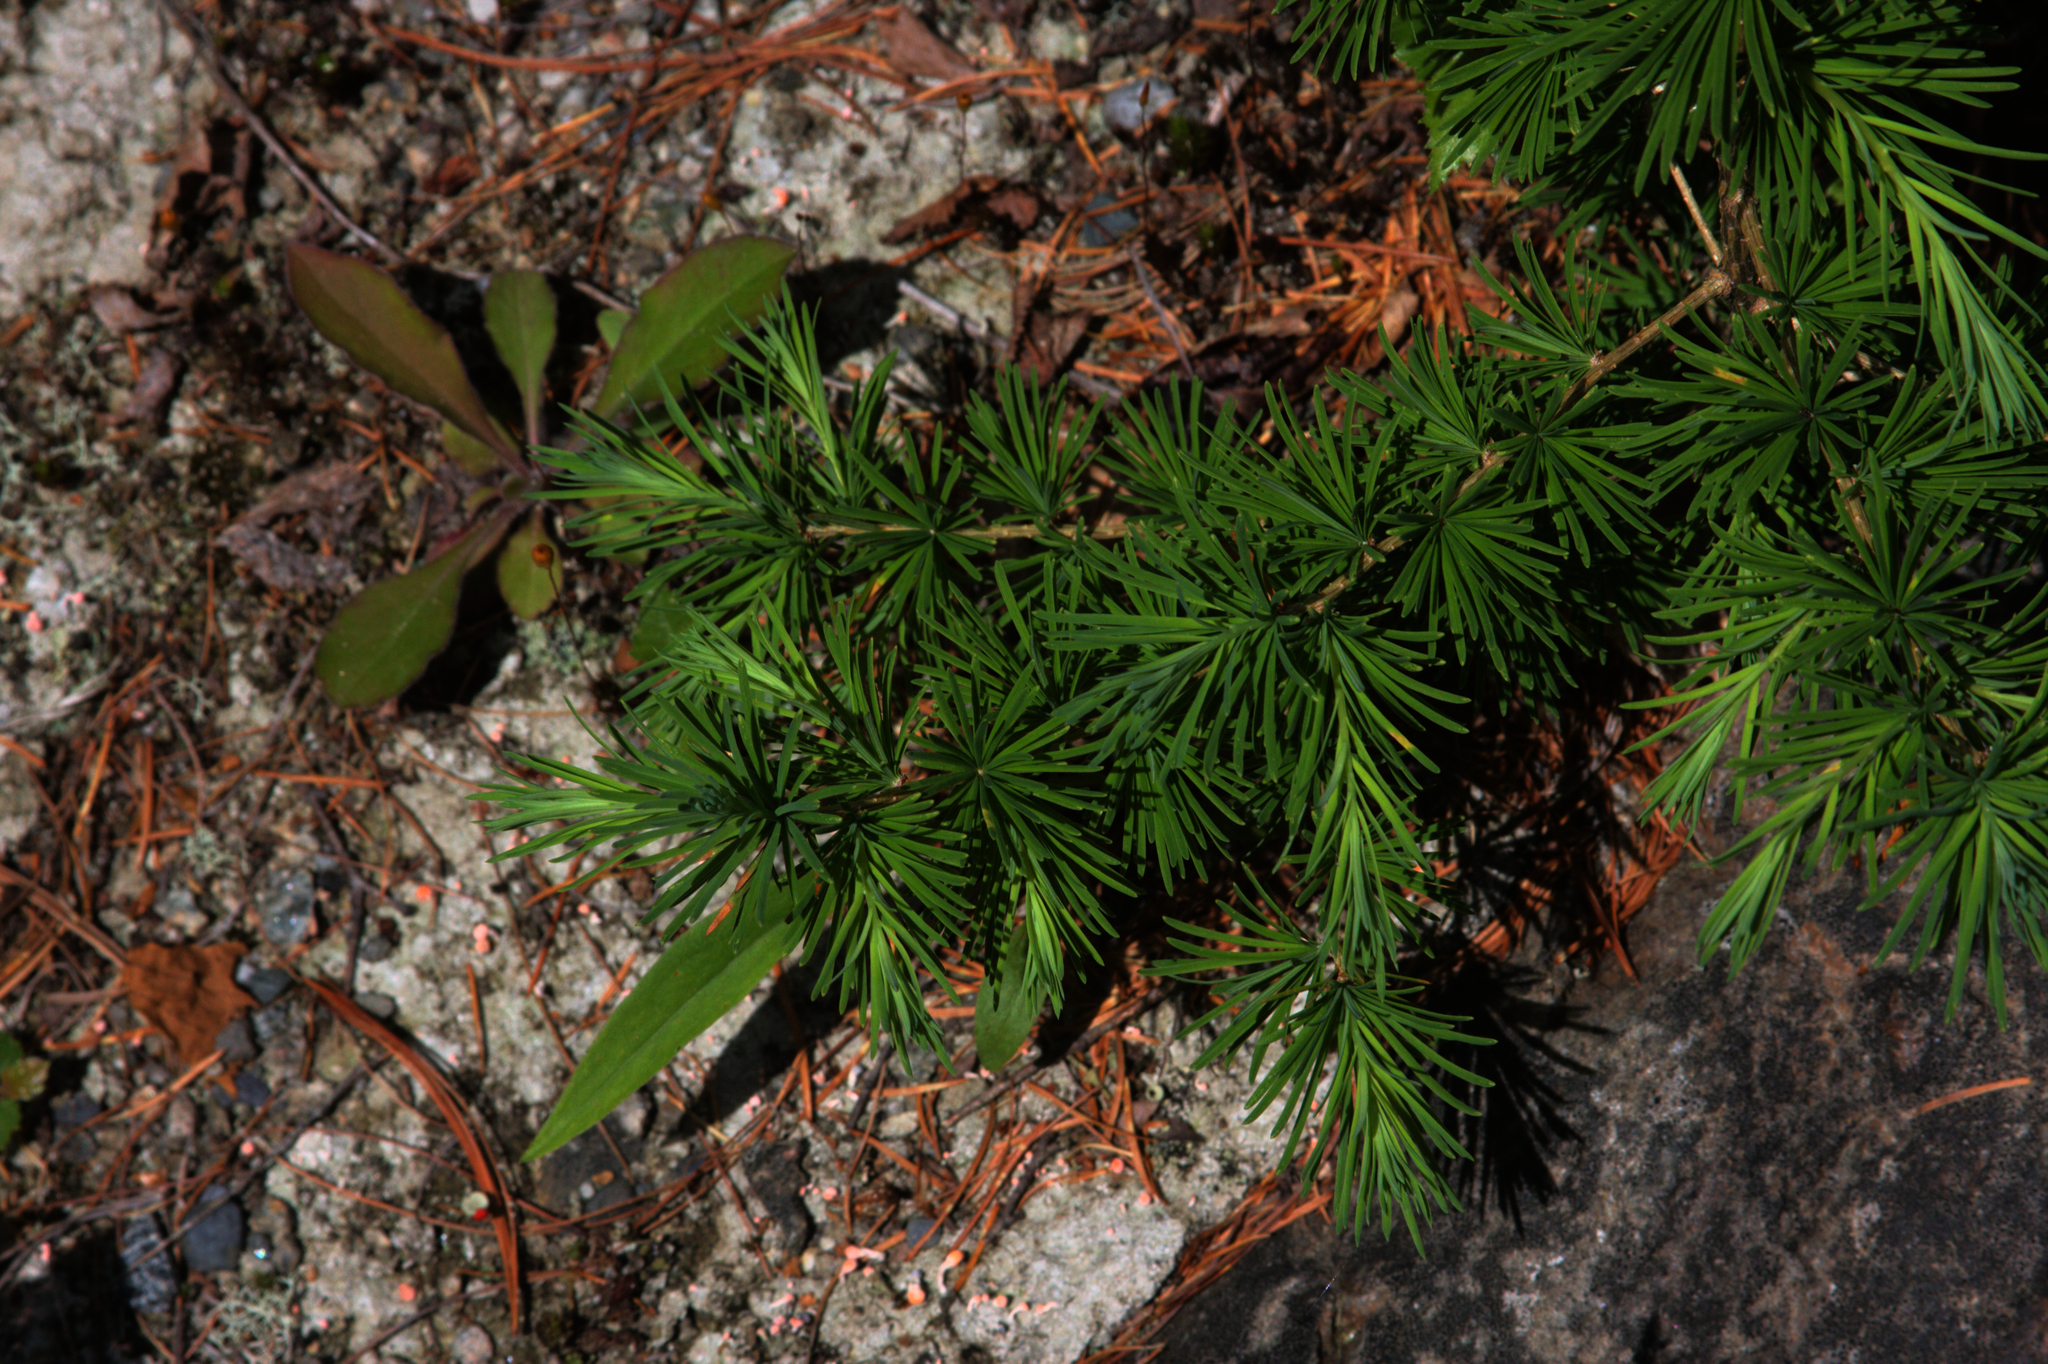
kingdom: Plantae
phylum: Tracheophyta
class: Pinopsida
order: Pinales
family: Pinaceae
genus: Larix
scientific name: Larix laricina
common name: American larch
